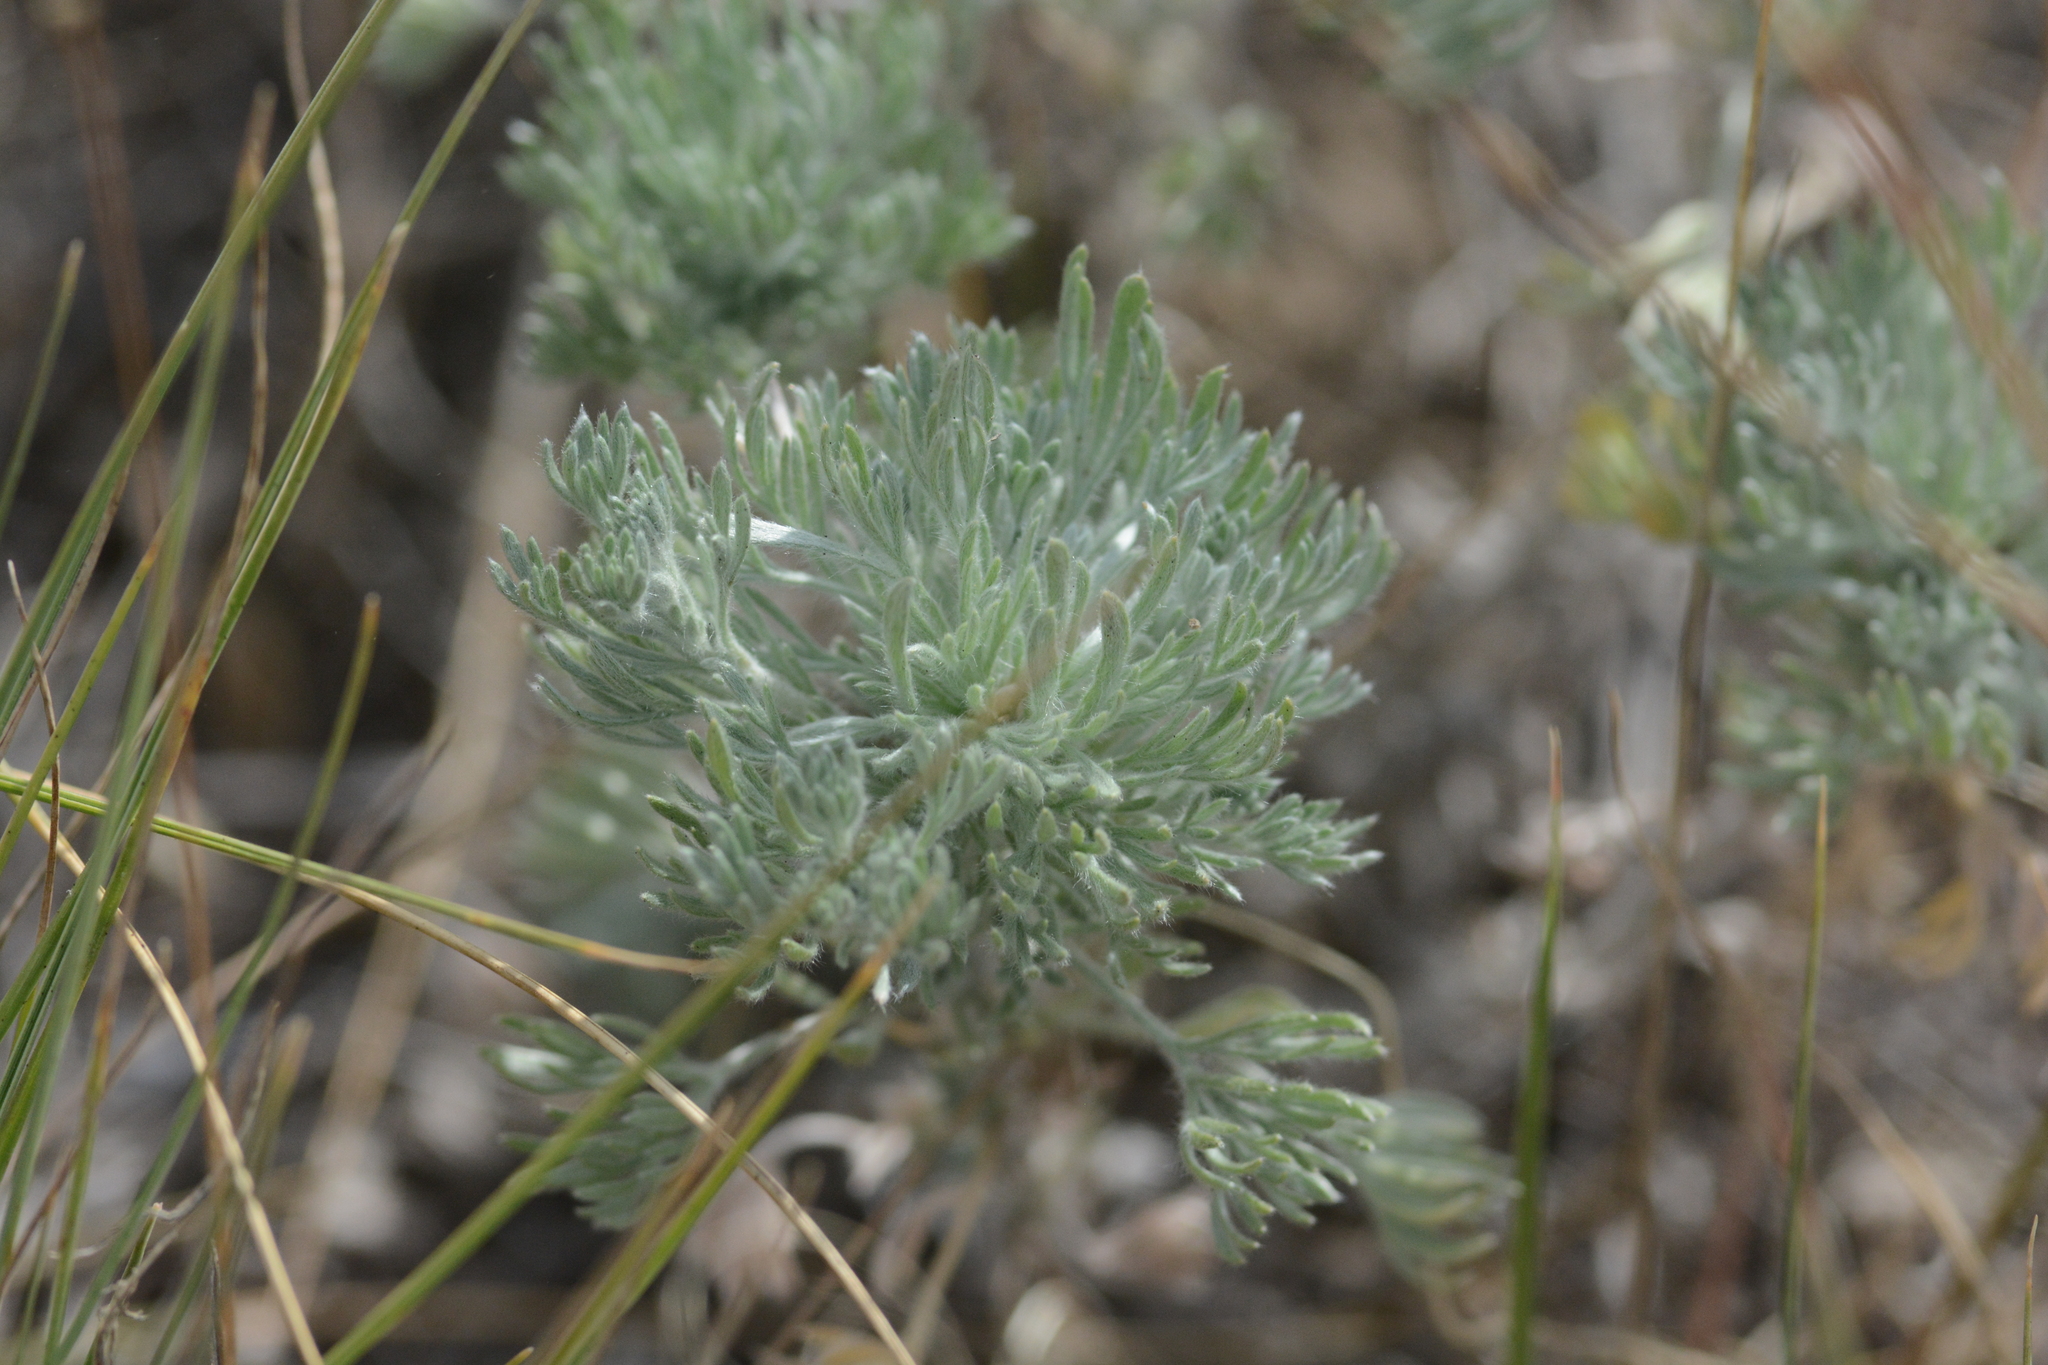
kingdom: Plantae
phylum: Tracheophyta
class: Magnoliopsida
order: Asterales
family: Asteraceae
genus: Artemisia
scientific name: Artemisia frigida
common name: Prairie sagewort
